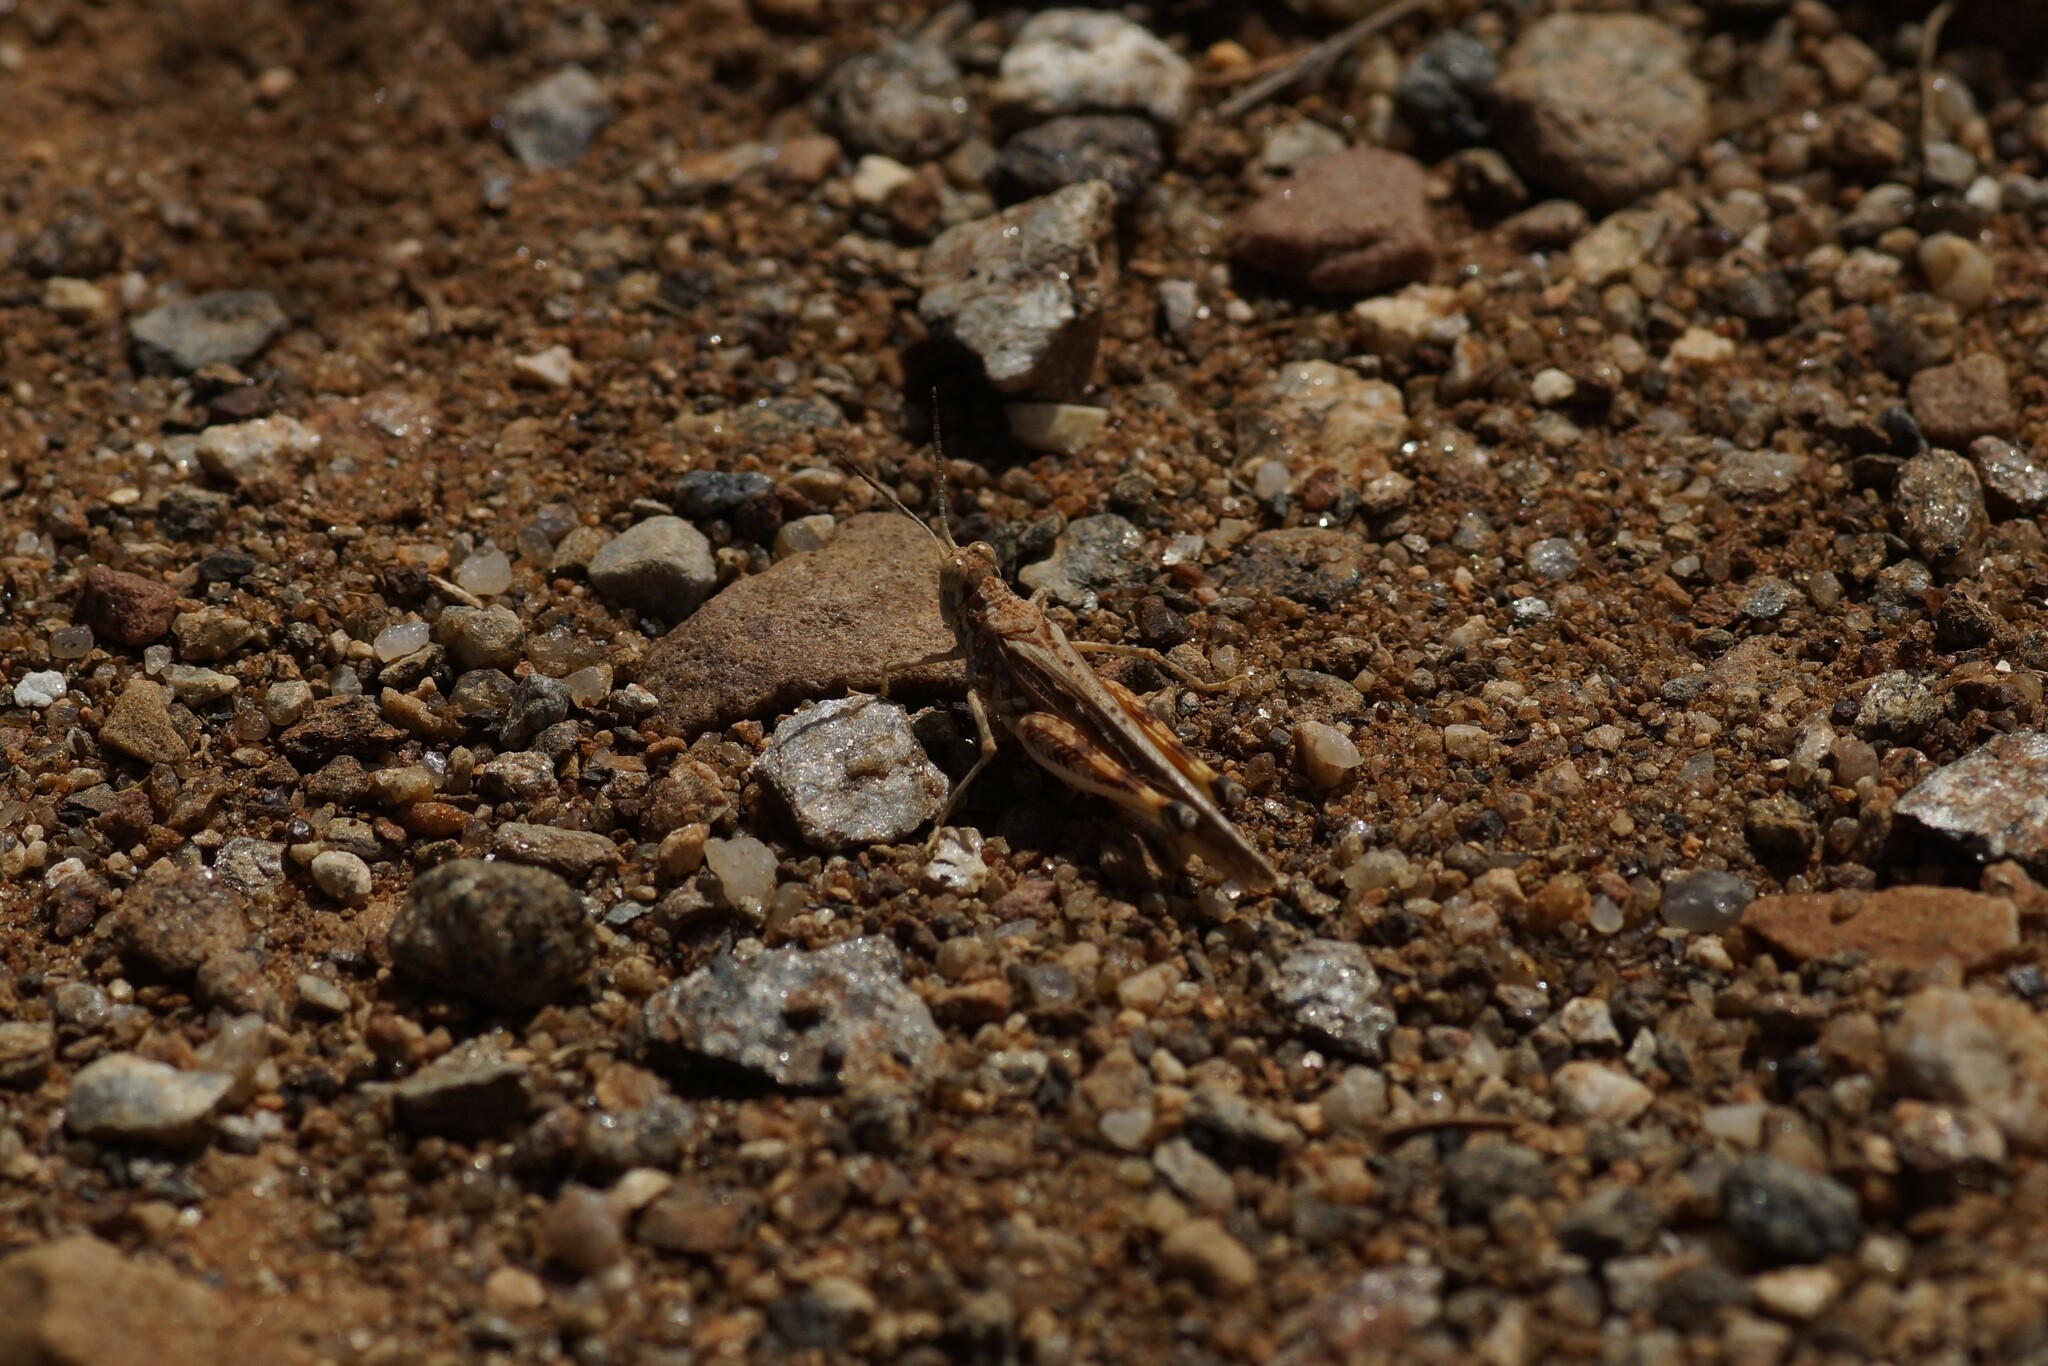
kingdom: Animalia
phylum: Arthropoda
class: Insecta
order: Orthoptera
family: Acrididae
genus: Urnisa
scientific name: Urnisa guttulosa
